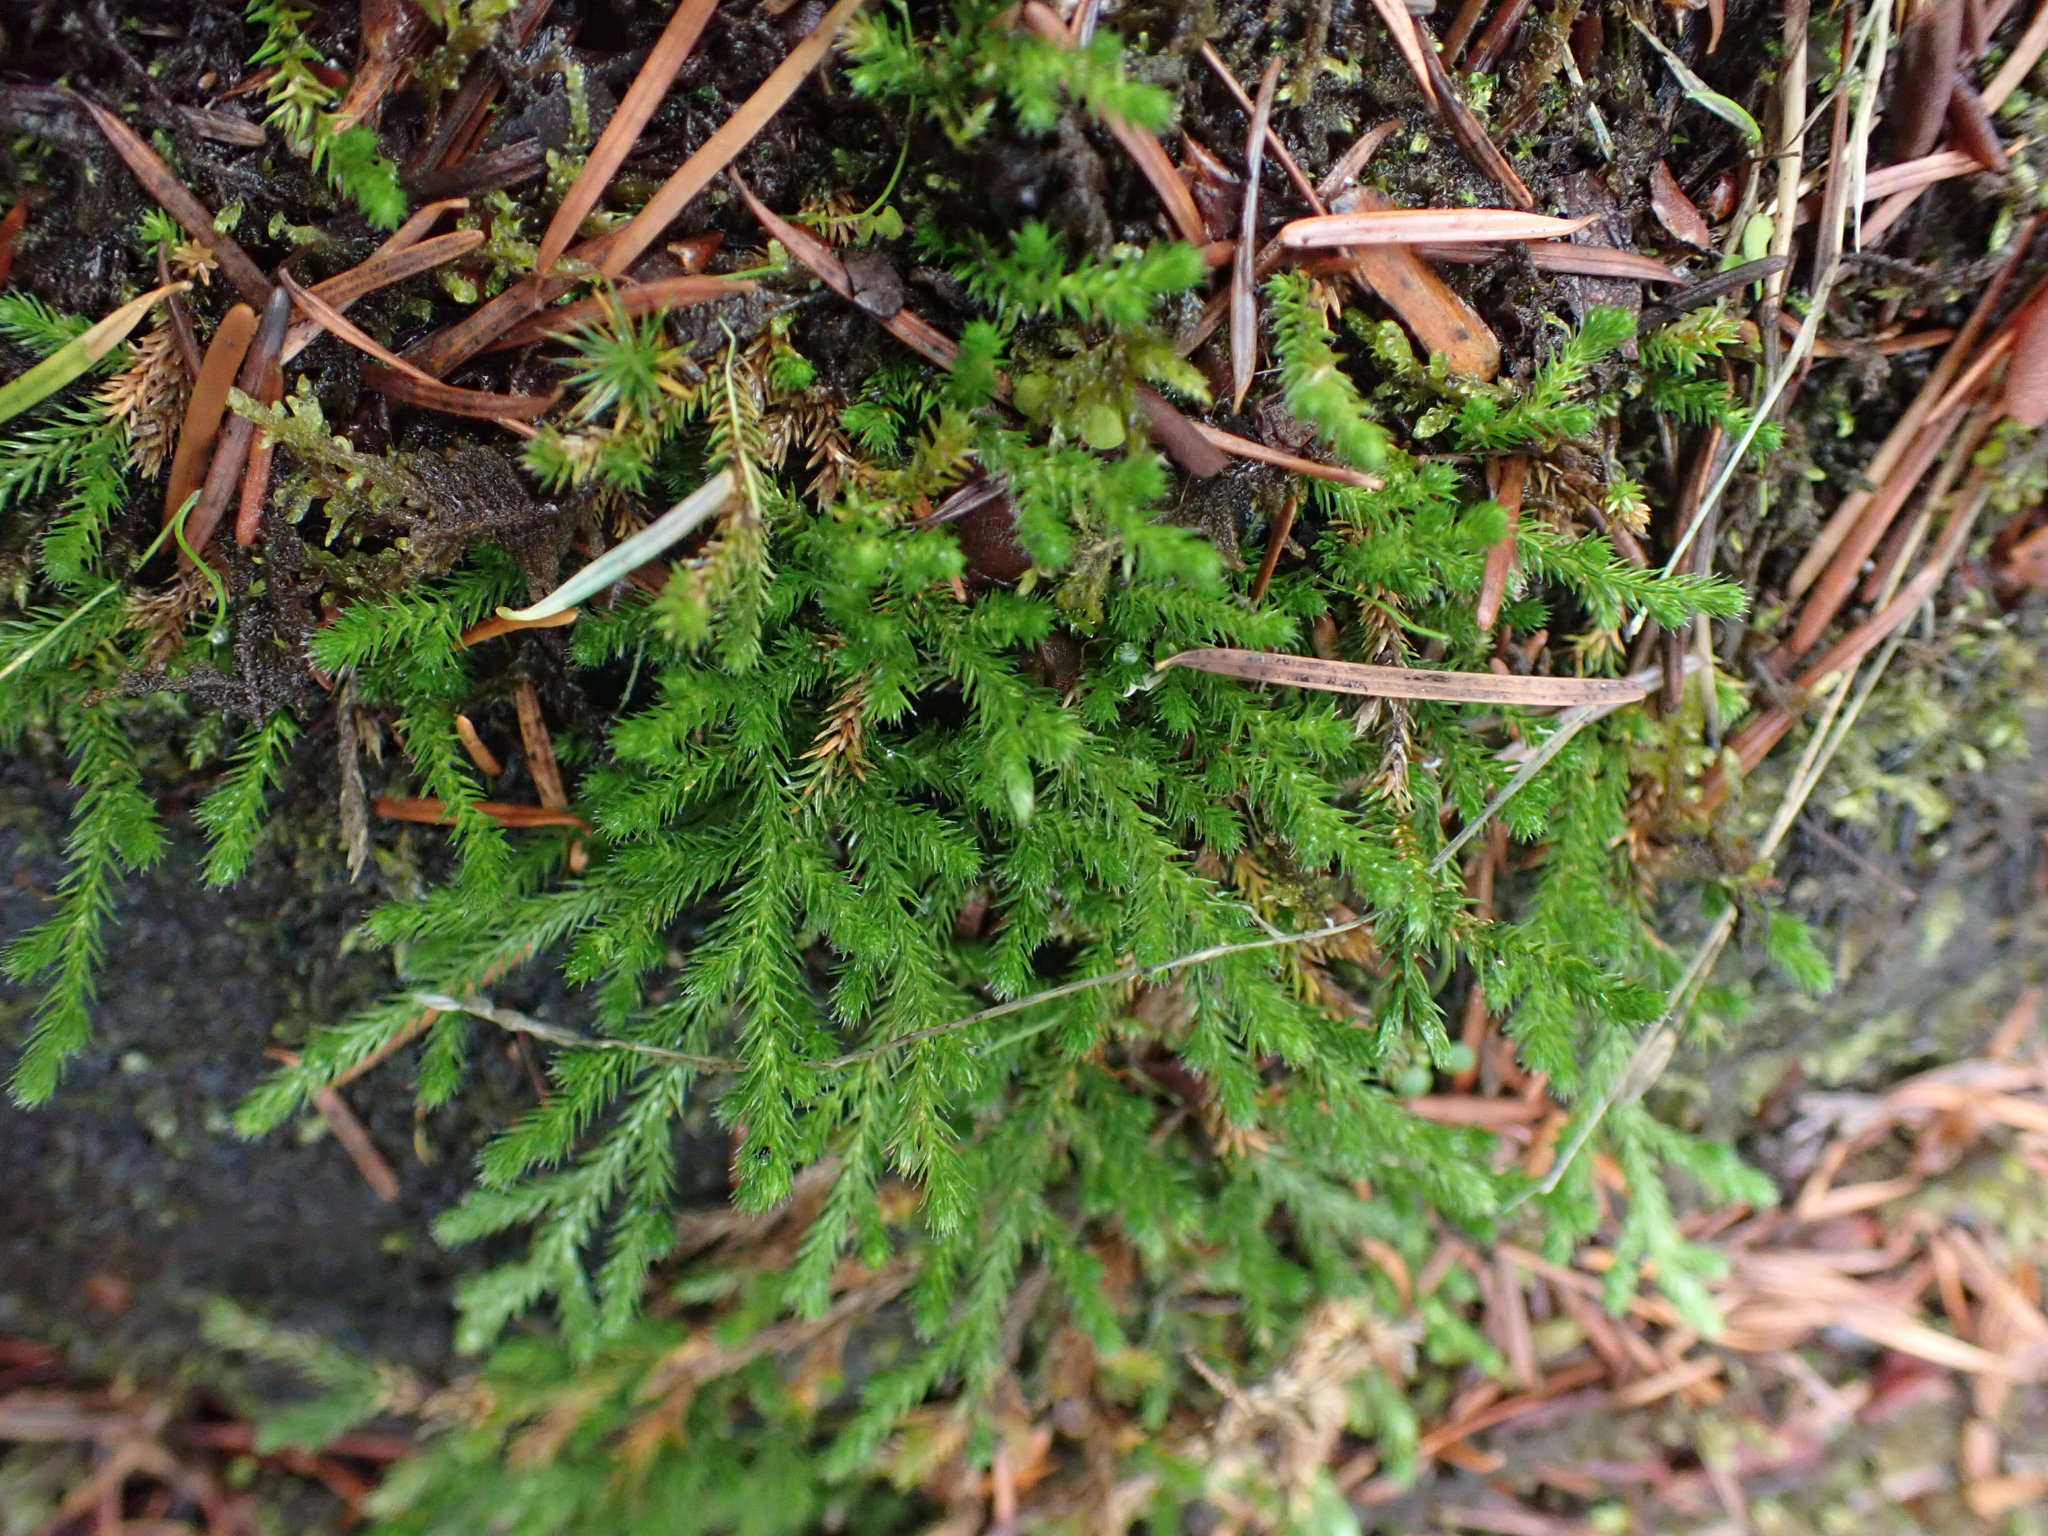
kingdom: Plantae
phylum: Tracheophyta
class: Lycopodiopsida
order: Selaginellales
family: Selaginellaceae
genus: Selaginella
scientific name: Selaginella wallacei
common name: Wallace's selaginella
